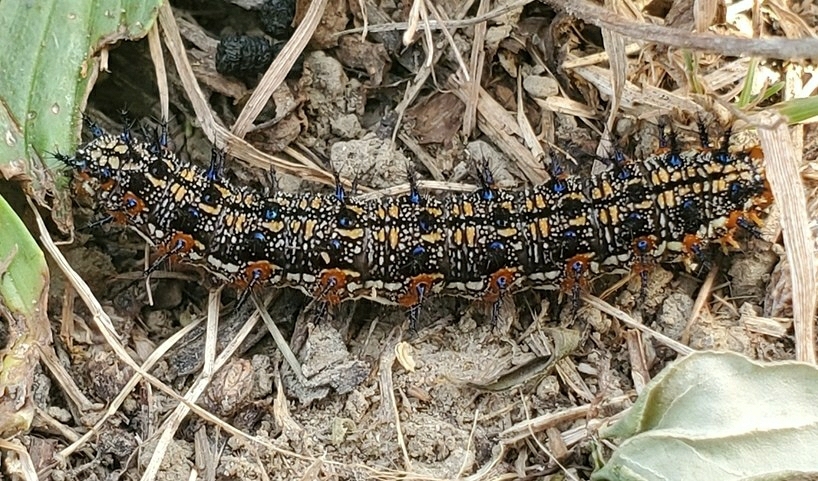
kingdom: Animalia
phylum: Arthropoda
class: Insecta
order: Lepidoptera
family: Nymphalidae
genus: Junonia
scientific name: Junonia coenia
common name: Common buckeye
